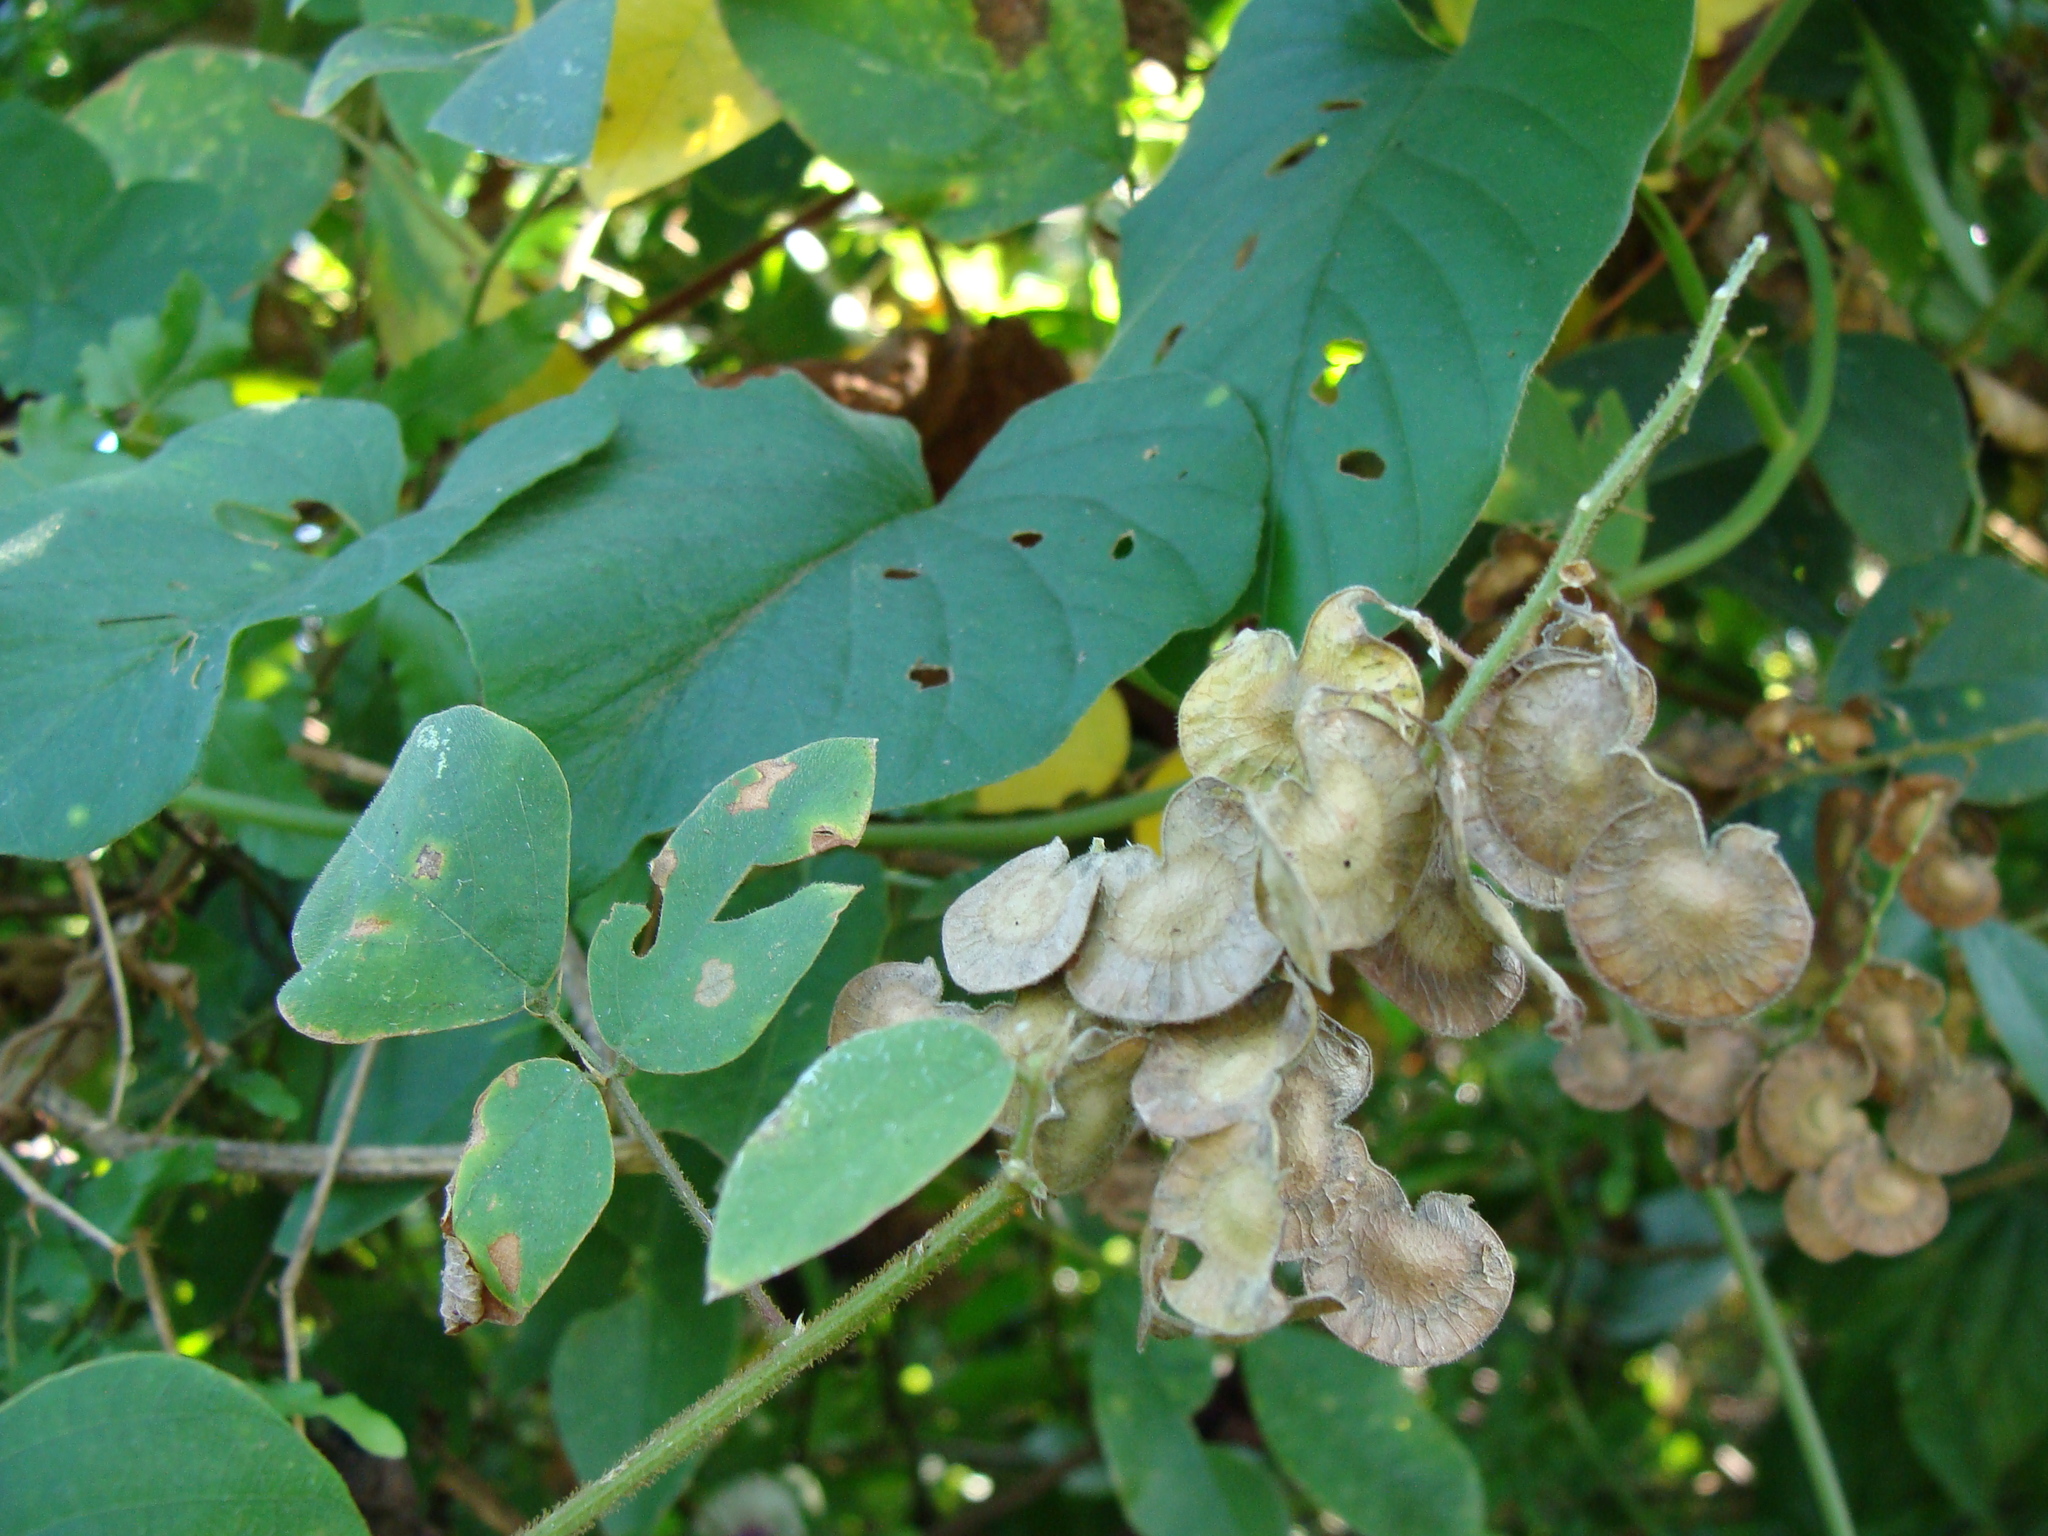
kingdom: Plantae
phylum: Tracheophyta
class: Magnoliopsida
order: Fabales
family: Fabaceae
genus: Desmodium
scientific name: Desmodium infractum
